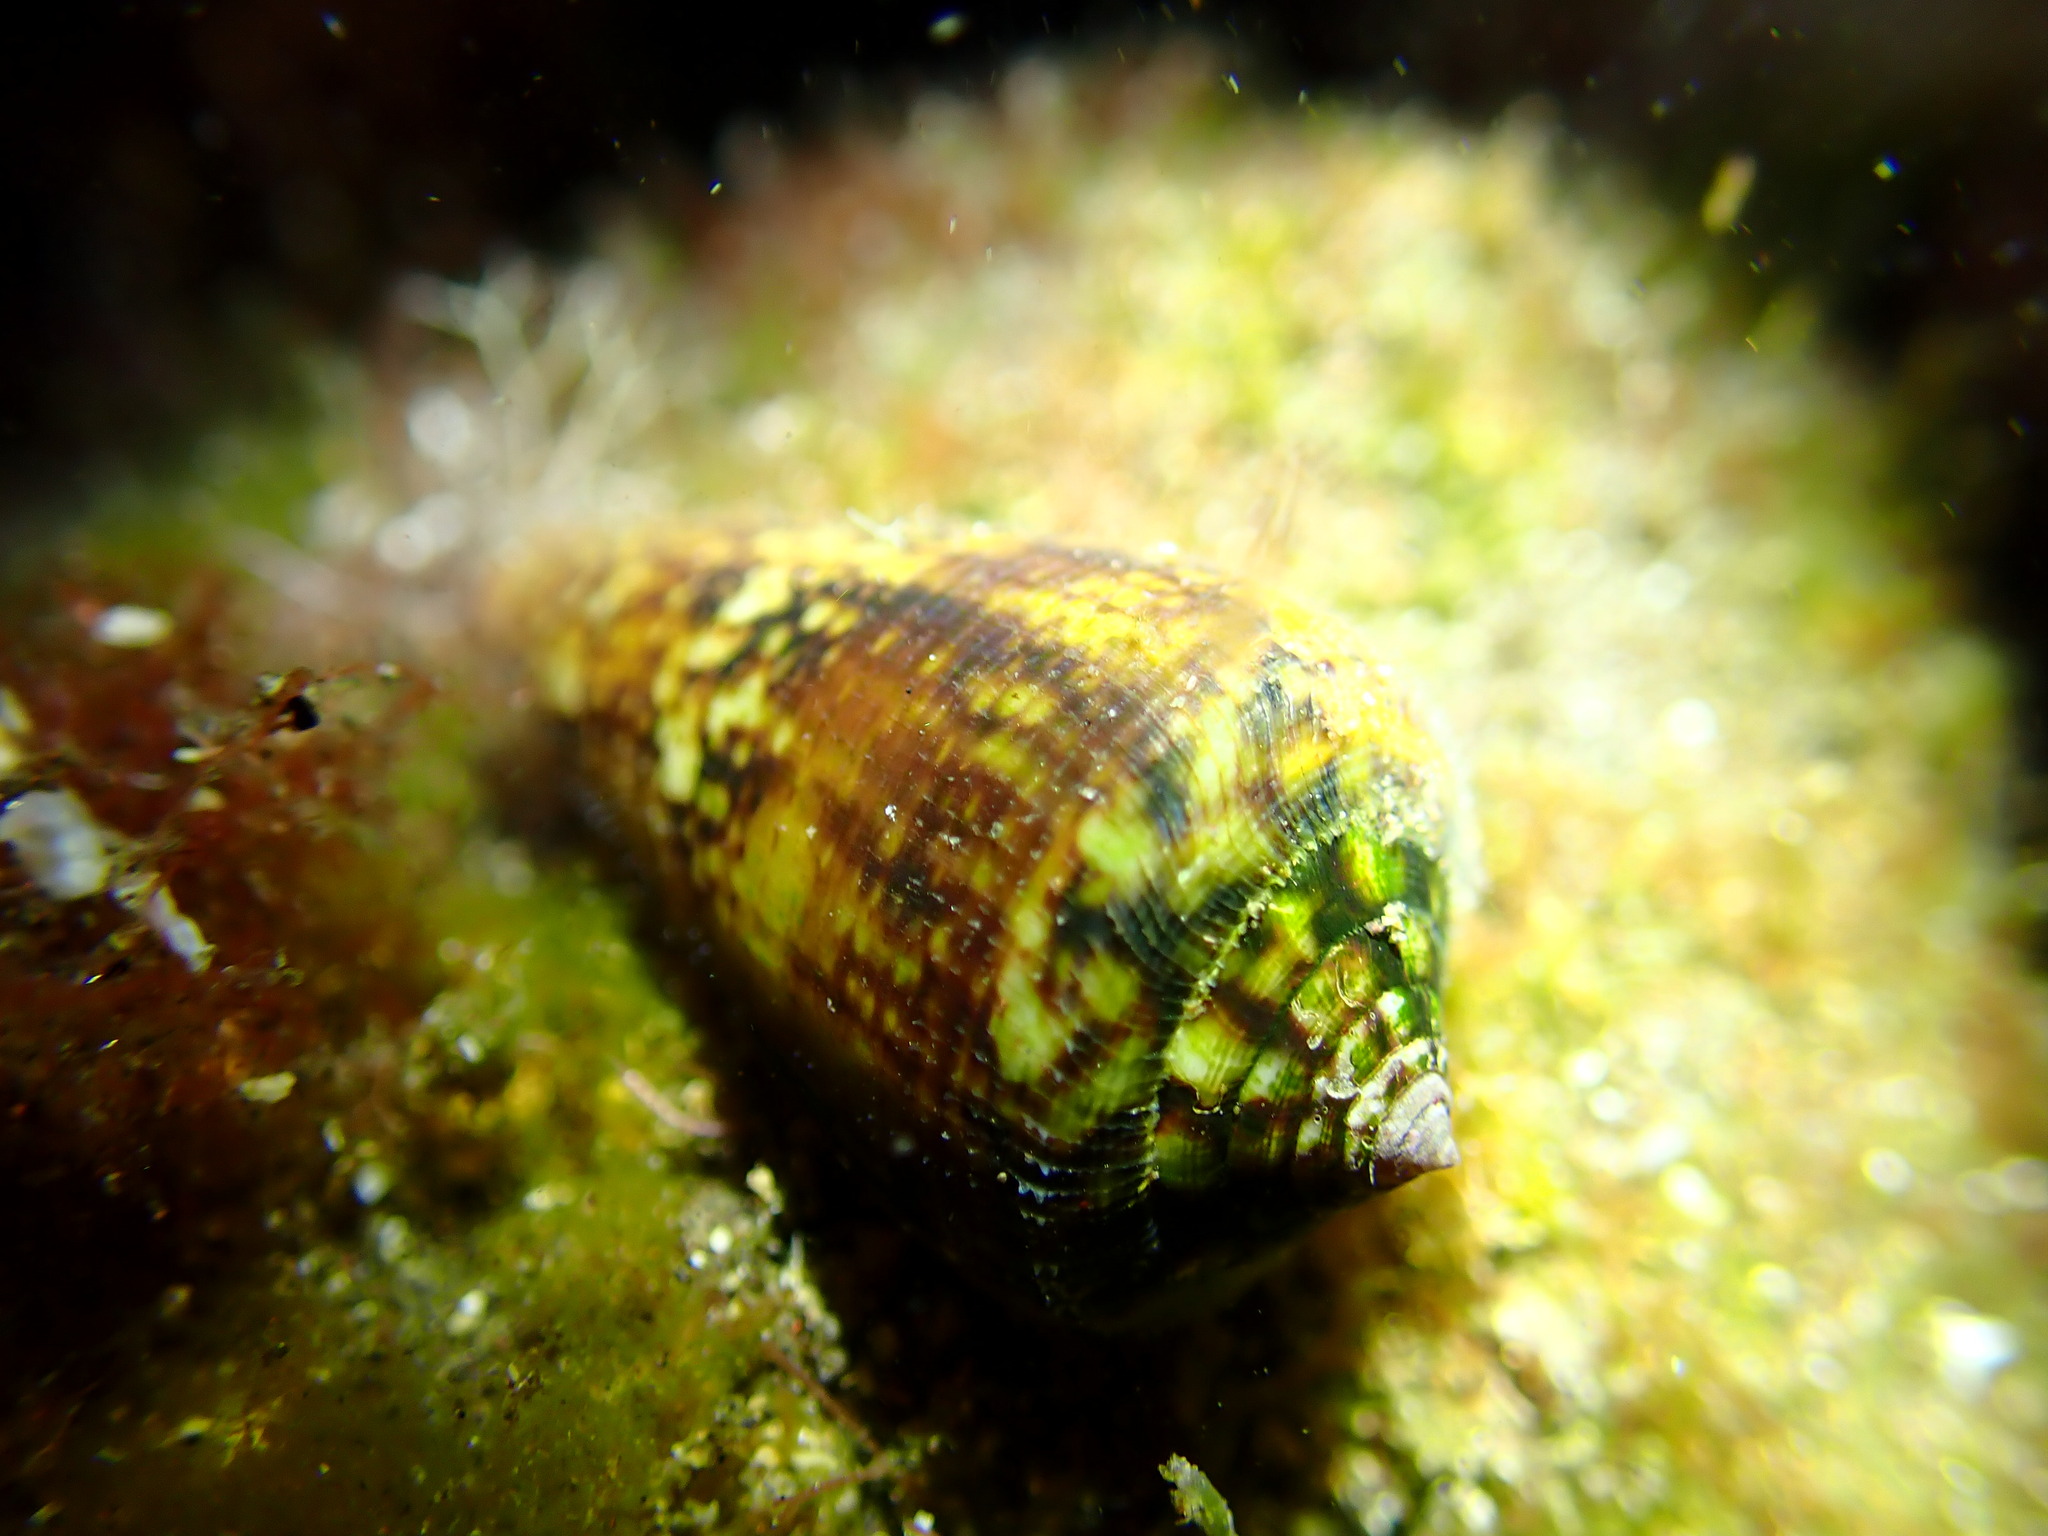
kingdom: Animalia
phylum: Mollusca
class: Gastropoda
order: Neogastropoda
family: Conidae
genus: Conus
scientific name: Conus guanche
